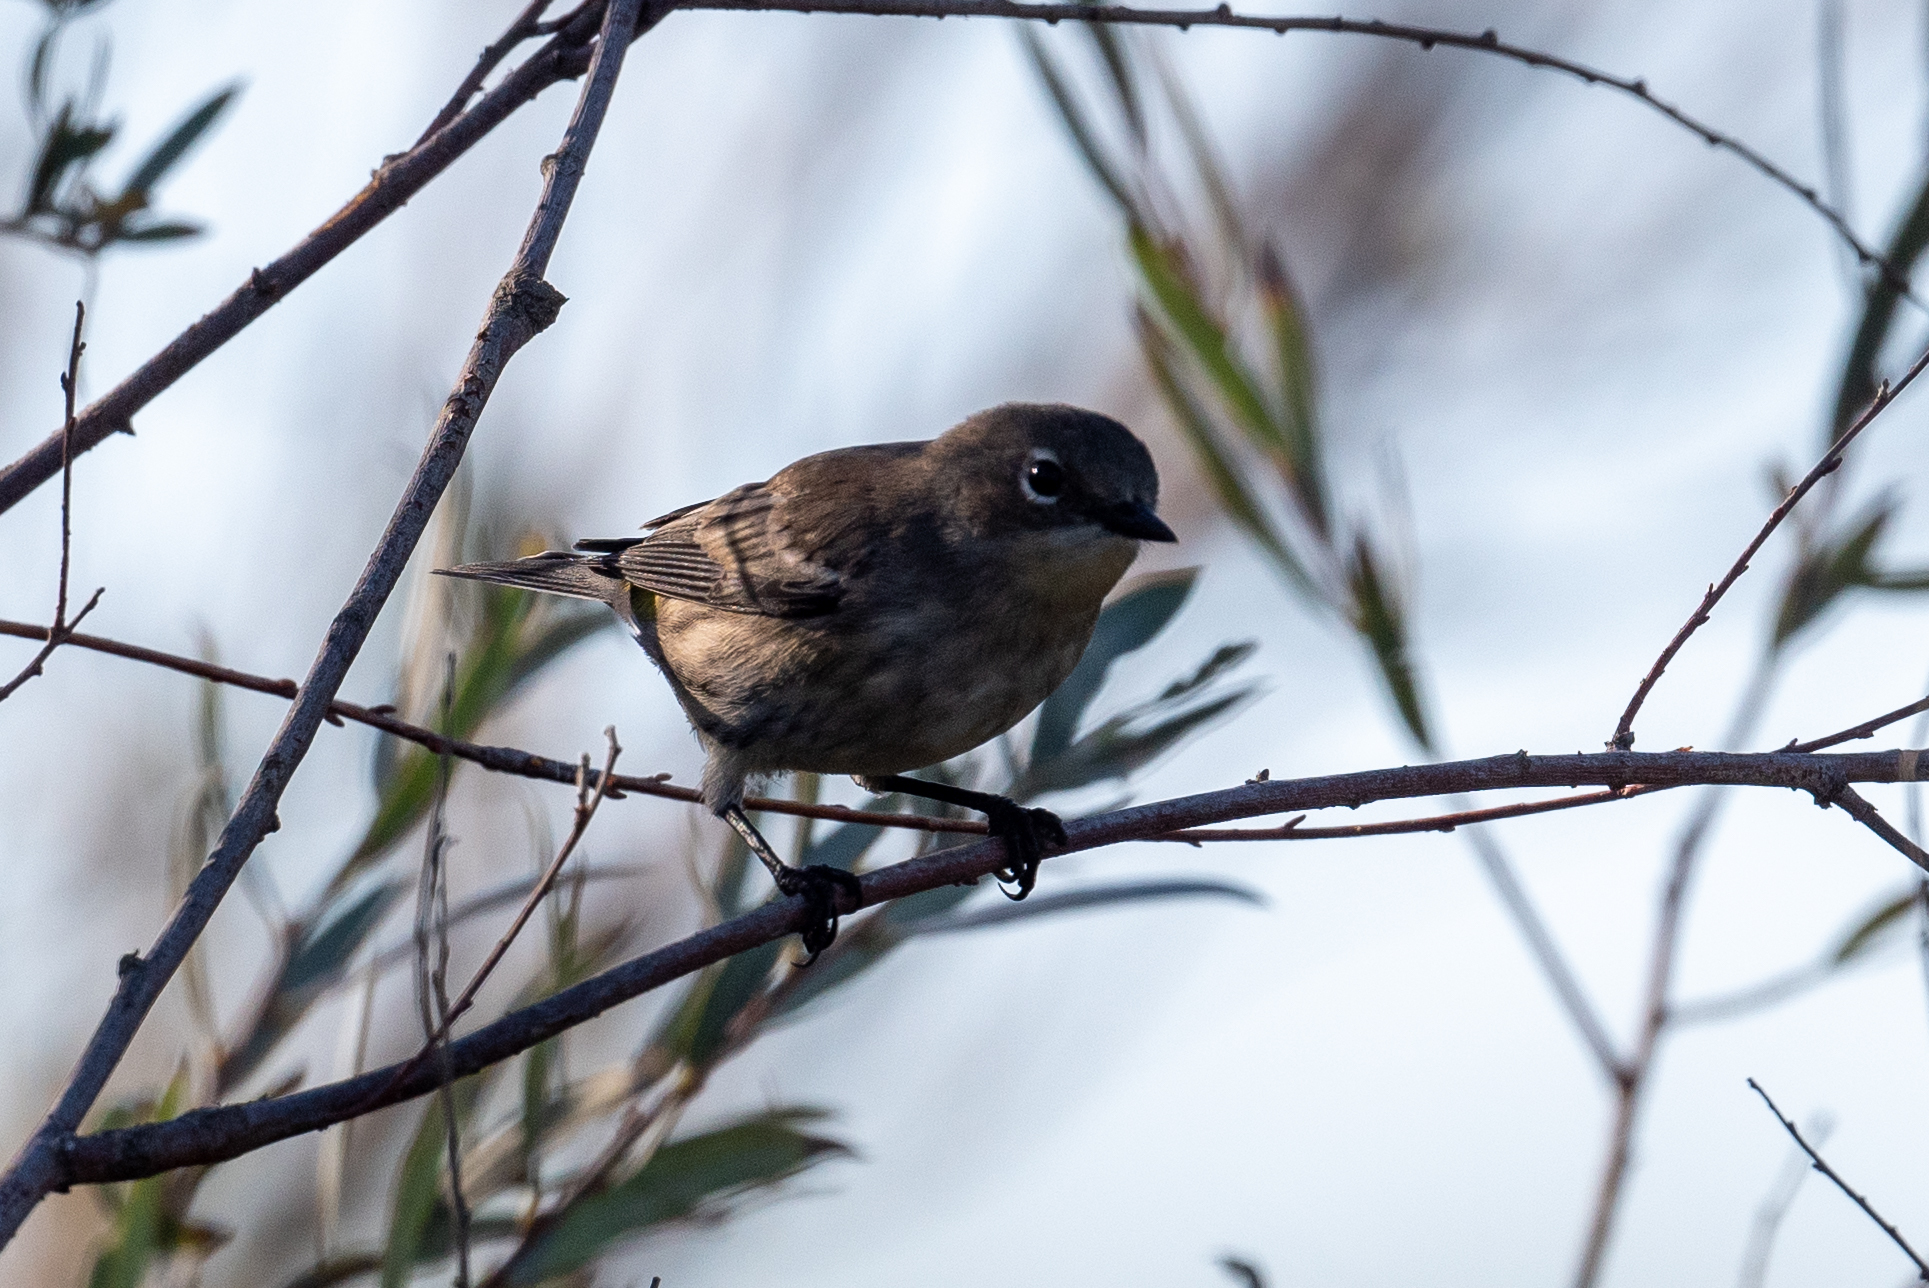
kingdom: Animalia
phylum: Chordata
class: Aves
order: Passeriformes
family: Parulidae
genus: Setophaga
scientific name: Setophaga coronata
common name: Myrtle warbler
